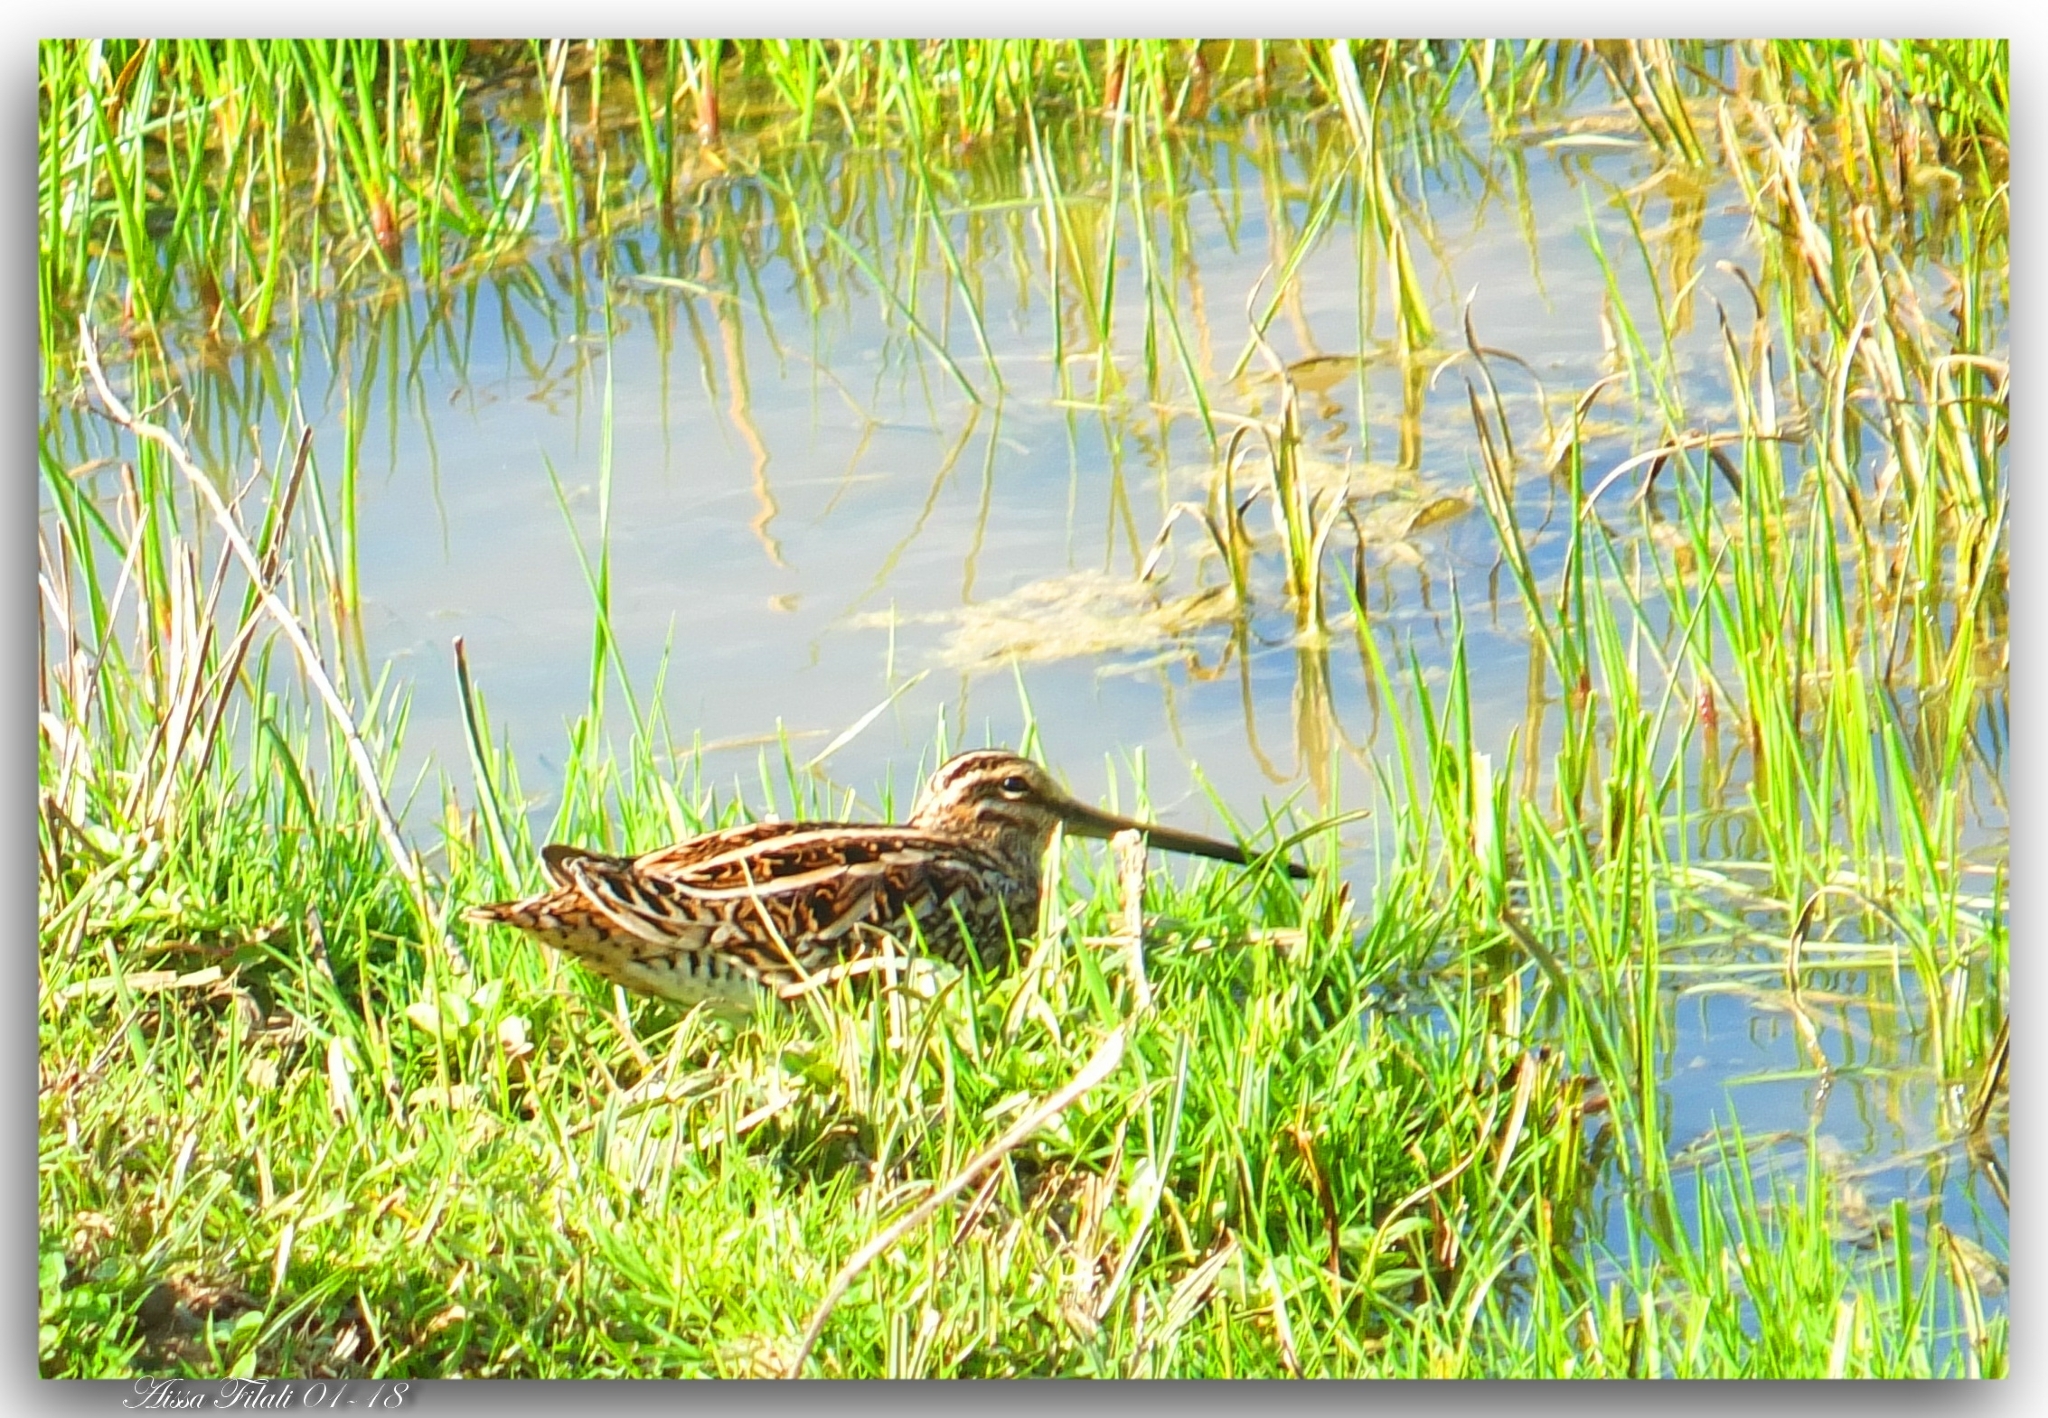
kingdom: Animalia
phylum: Chordata
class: Aves
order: Charadriiformes
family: Scolopacidae
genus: Gallinago
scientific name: Gallinago gallinago
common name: Common snipe
